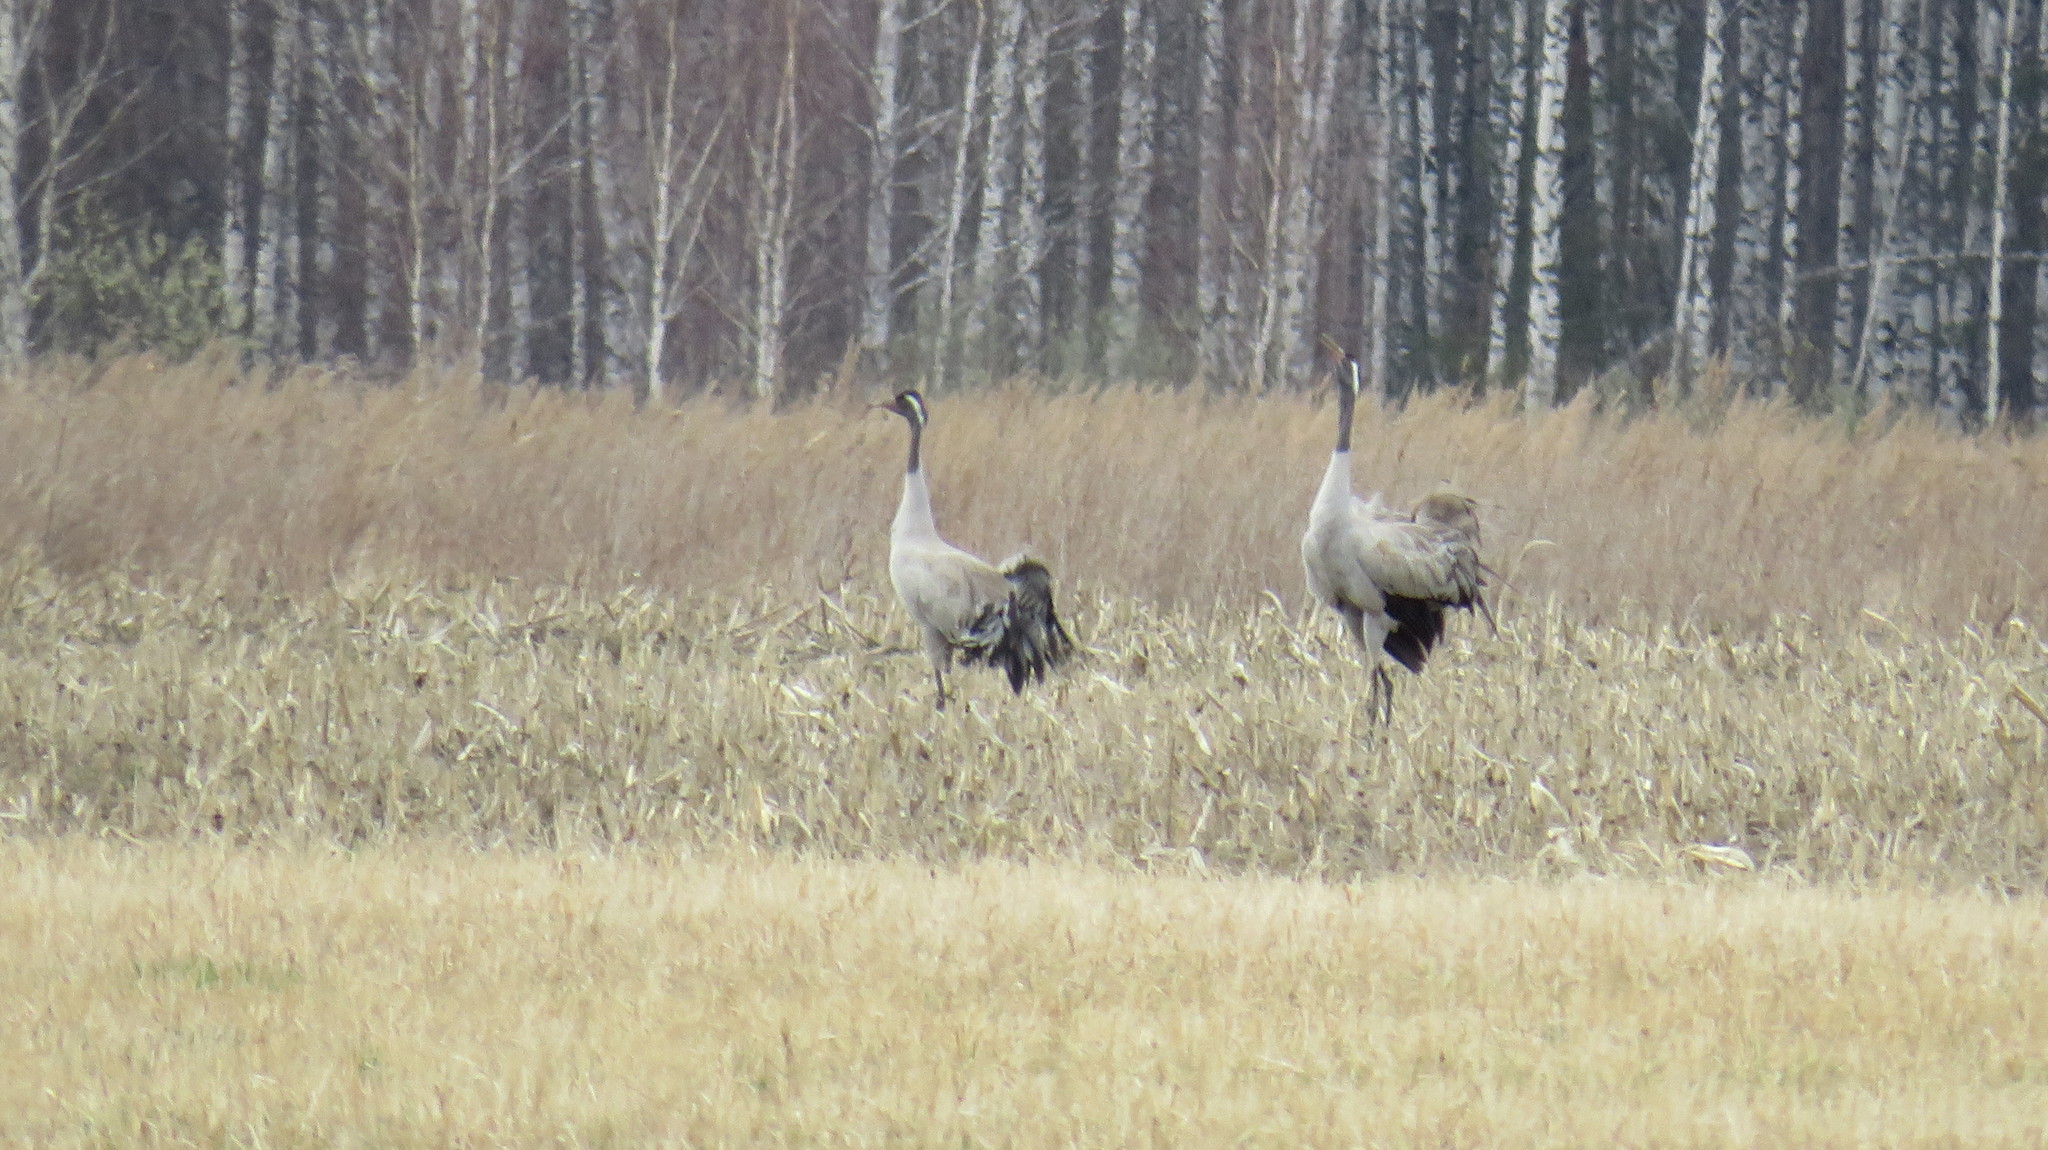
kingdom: Animalia
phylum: Chordata
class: Aves
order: Gruiformes
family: Gruidae
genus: Grus
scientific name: Grus grus
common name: Common crane
